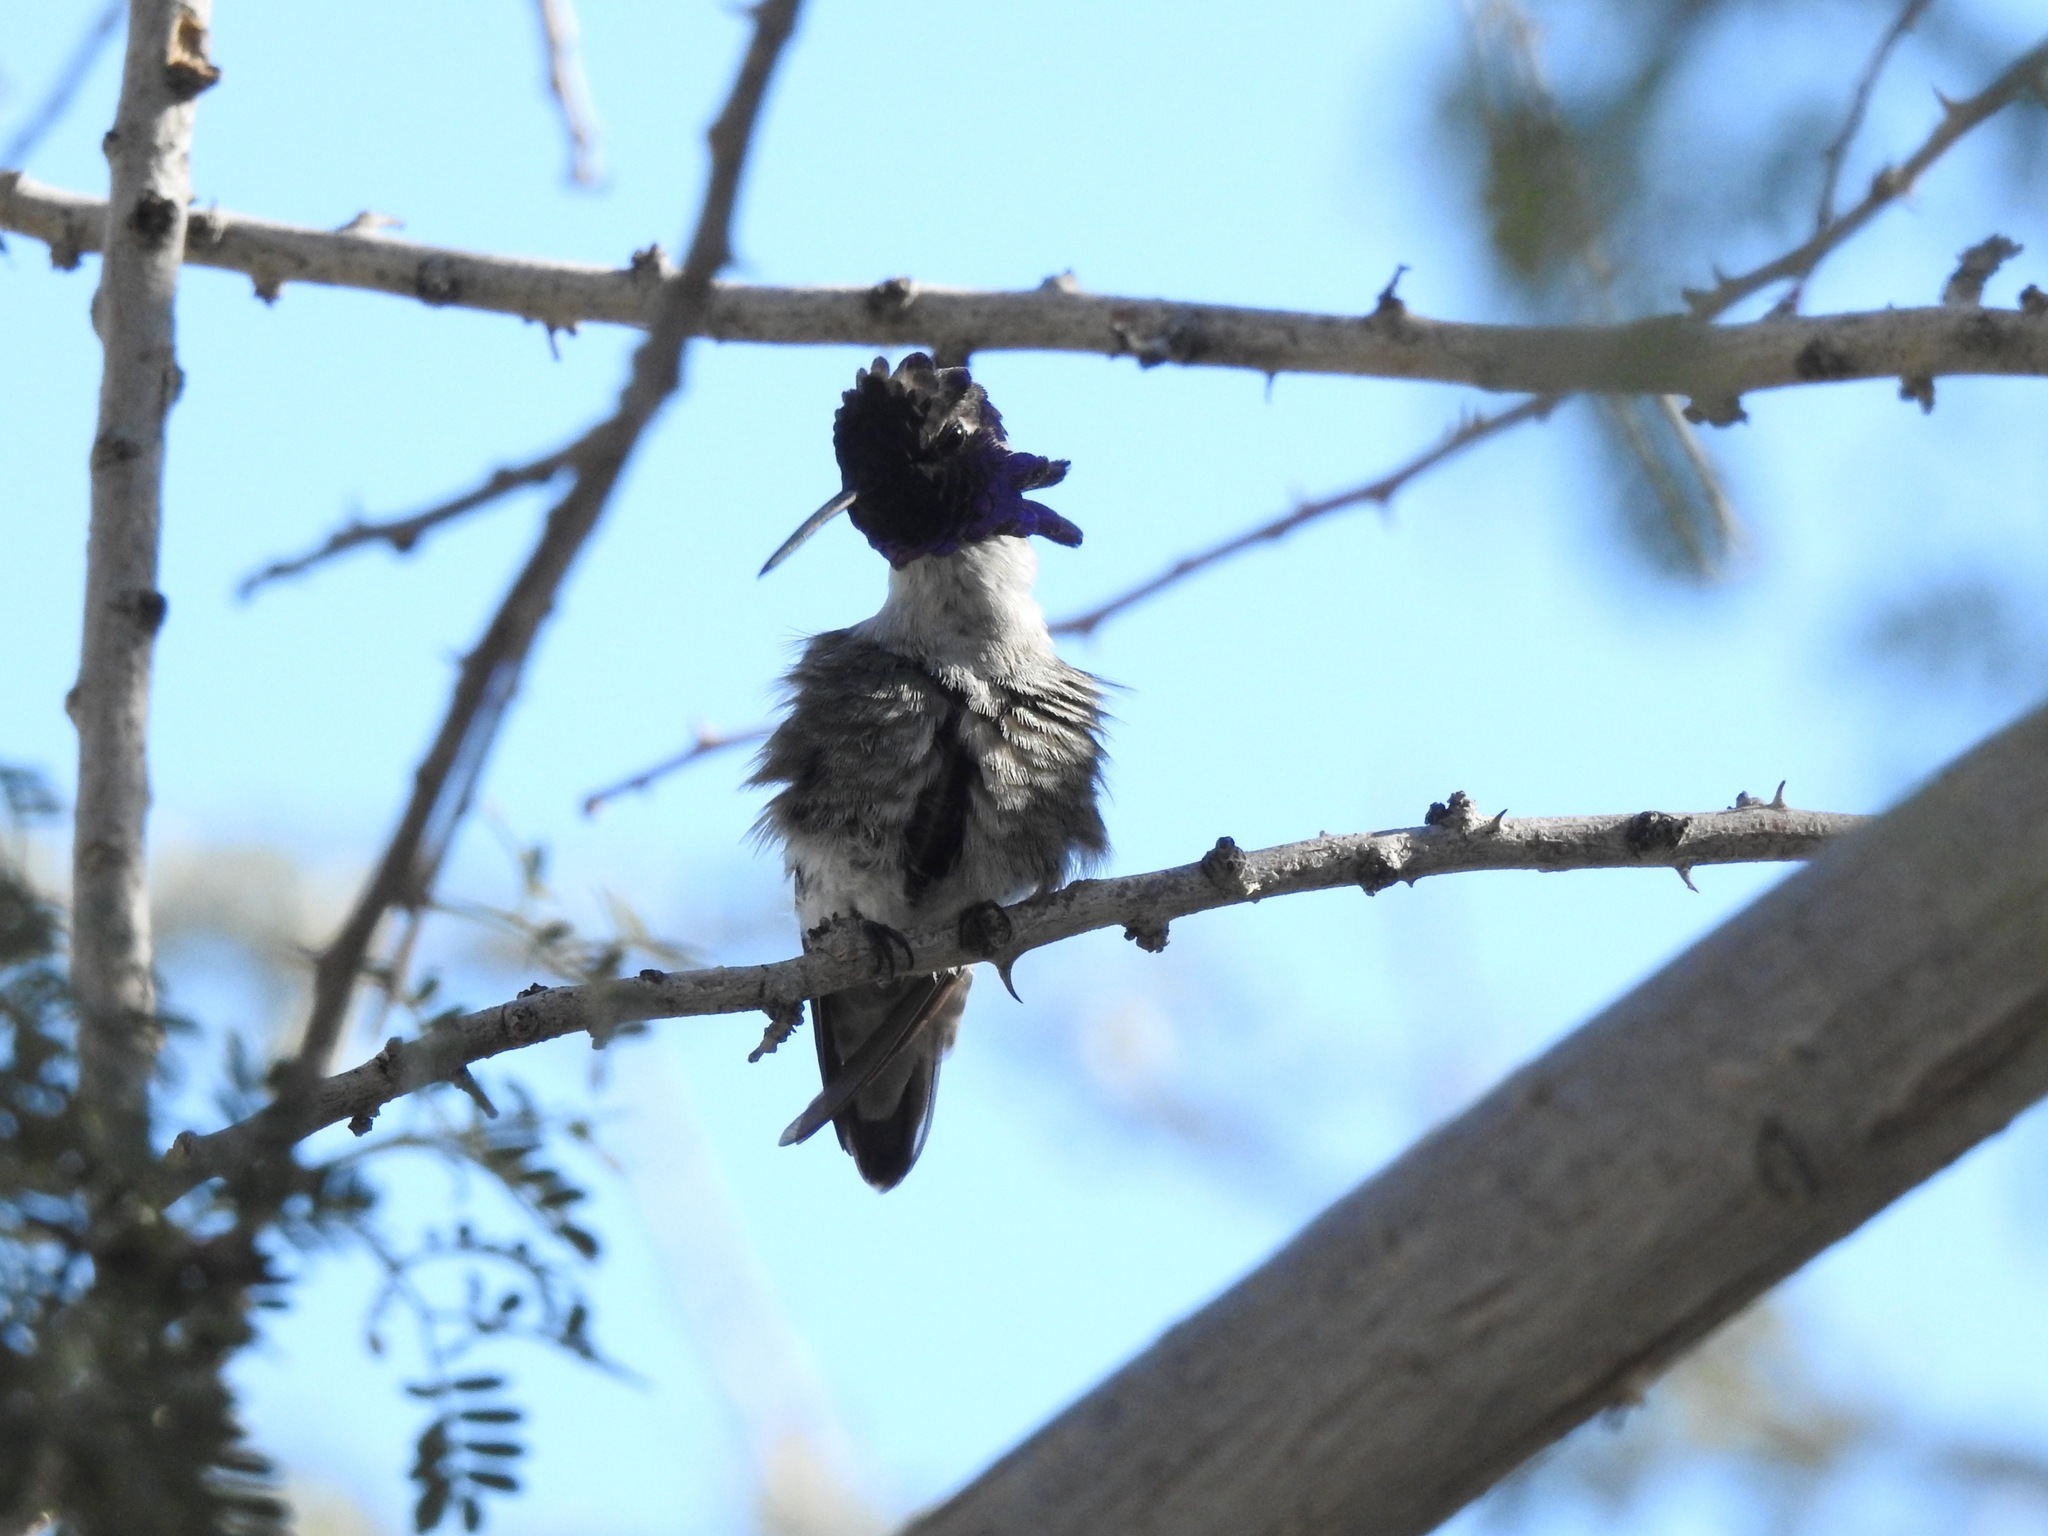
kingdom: Animalia
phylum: Chordata
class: Aves
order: Apodiformes
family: Trochilidae
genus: Calypte
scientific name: Calypte costae
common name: Costa's hummingbird
